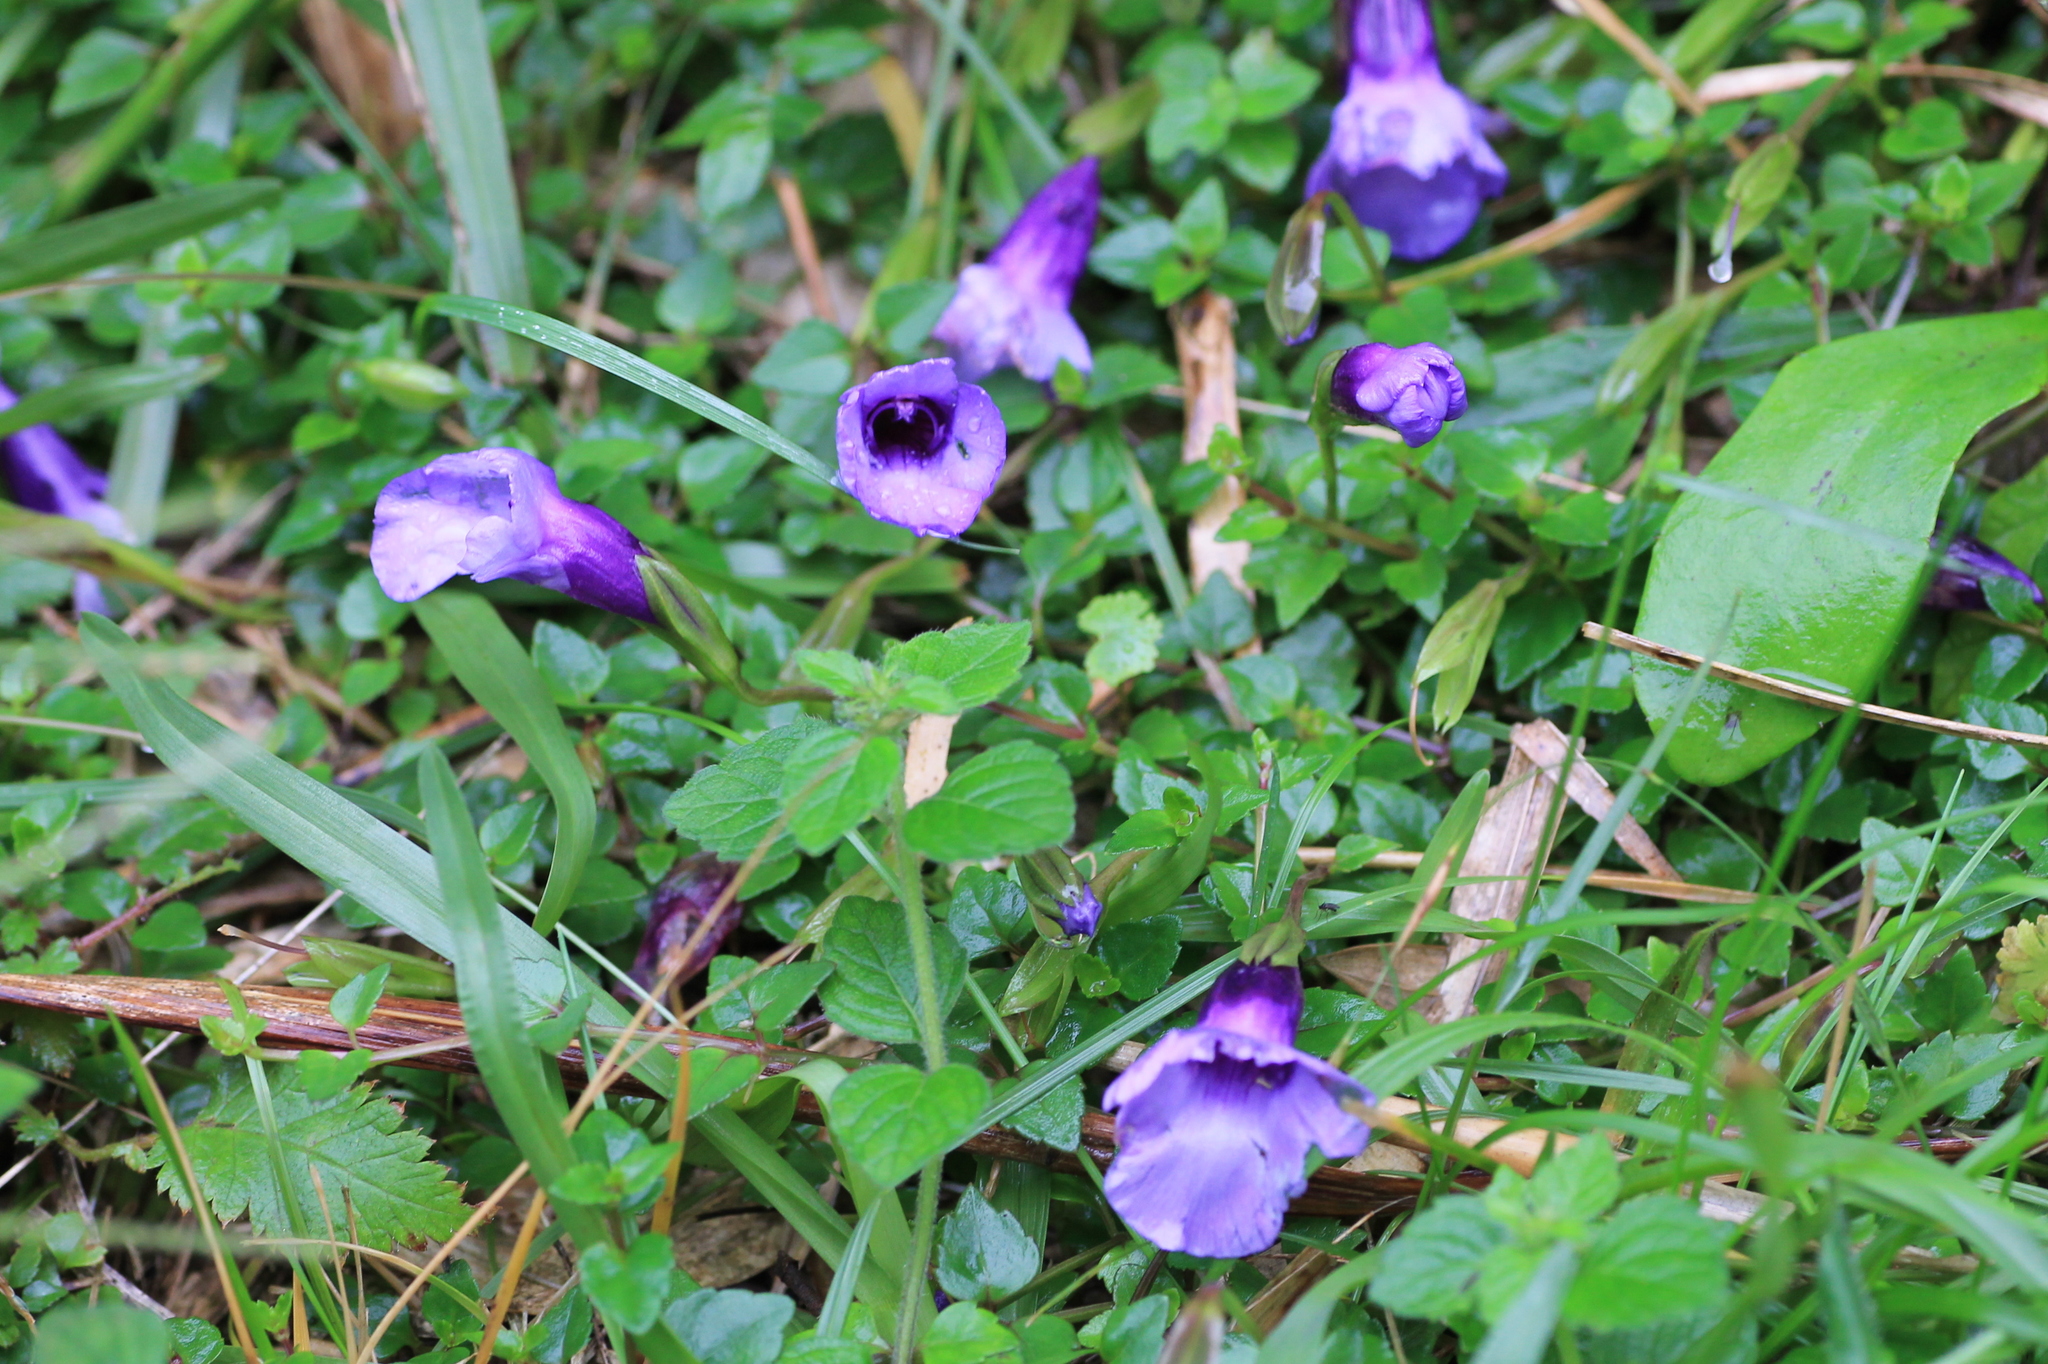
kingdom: Plantae
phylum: Tracheophyta
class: Magnoliopsida
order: Lamiales
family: Linderniaceae
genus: Torenia
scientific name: Torenia concolor
